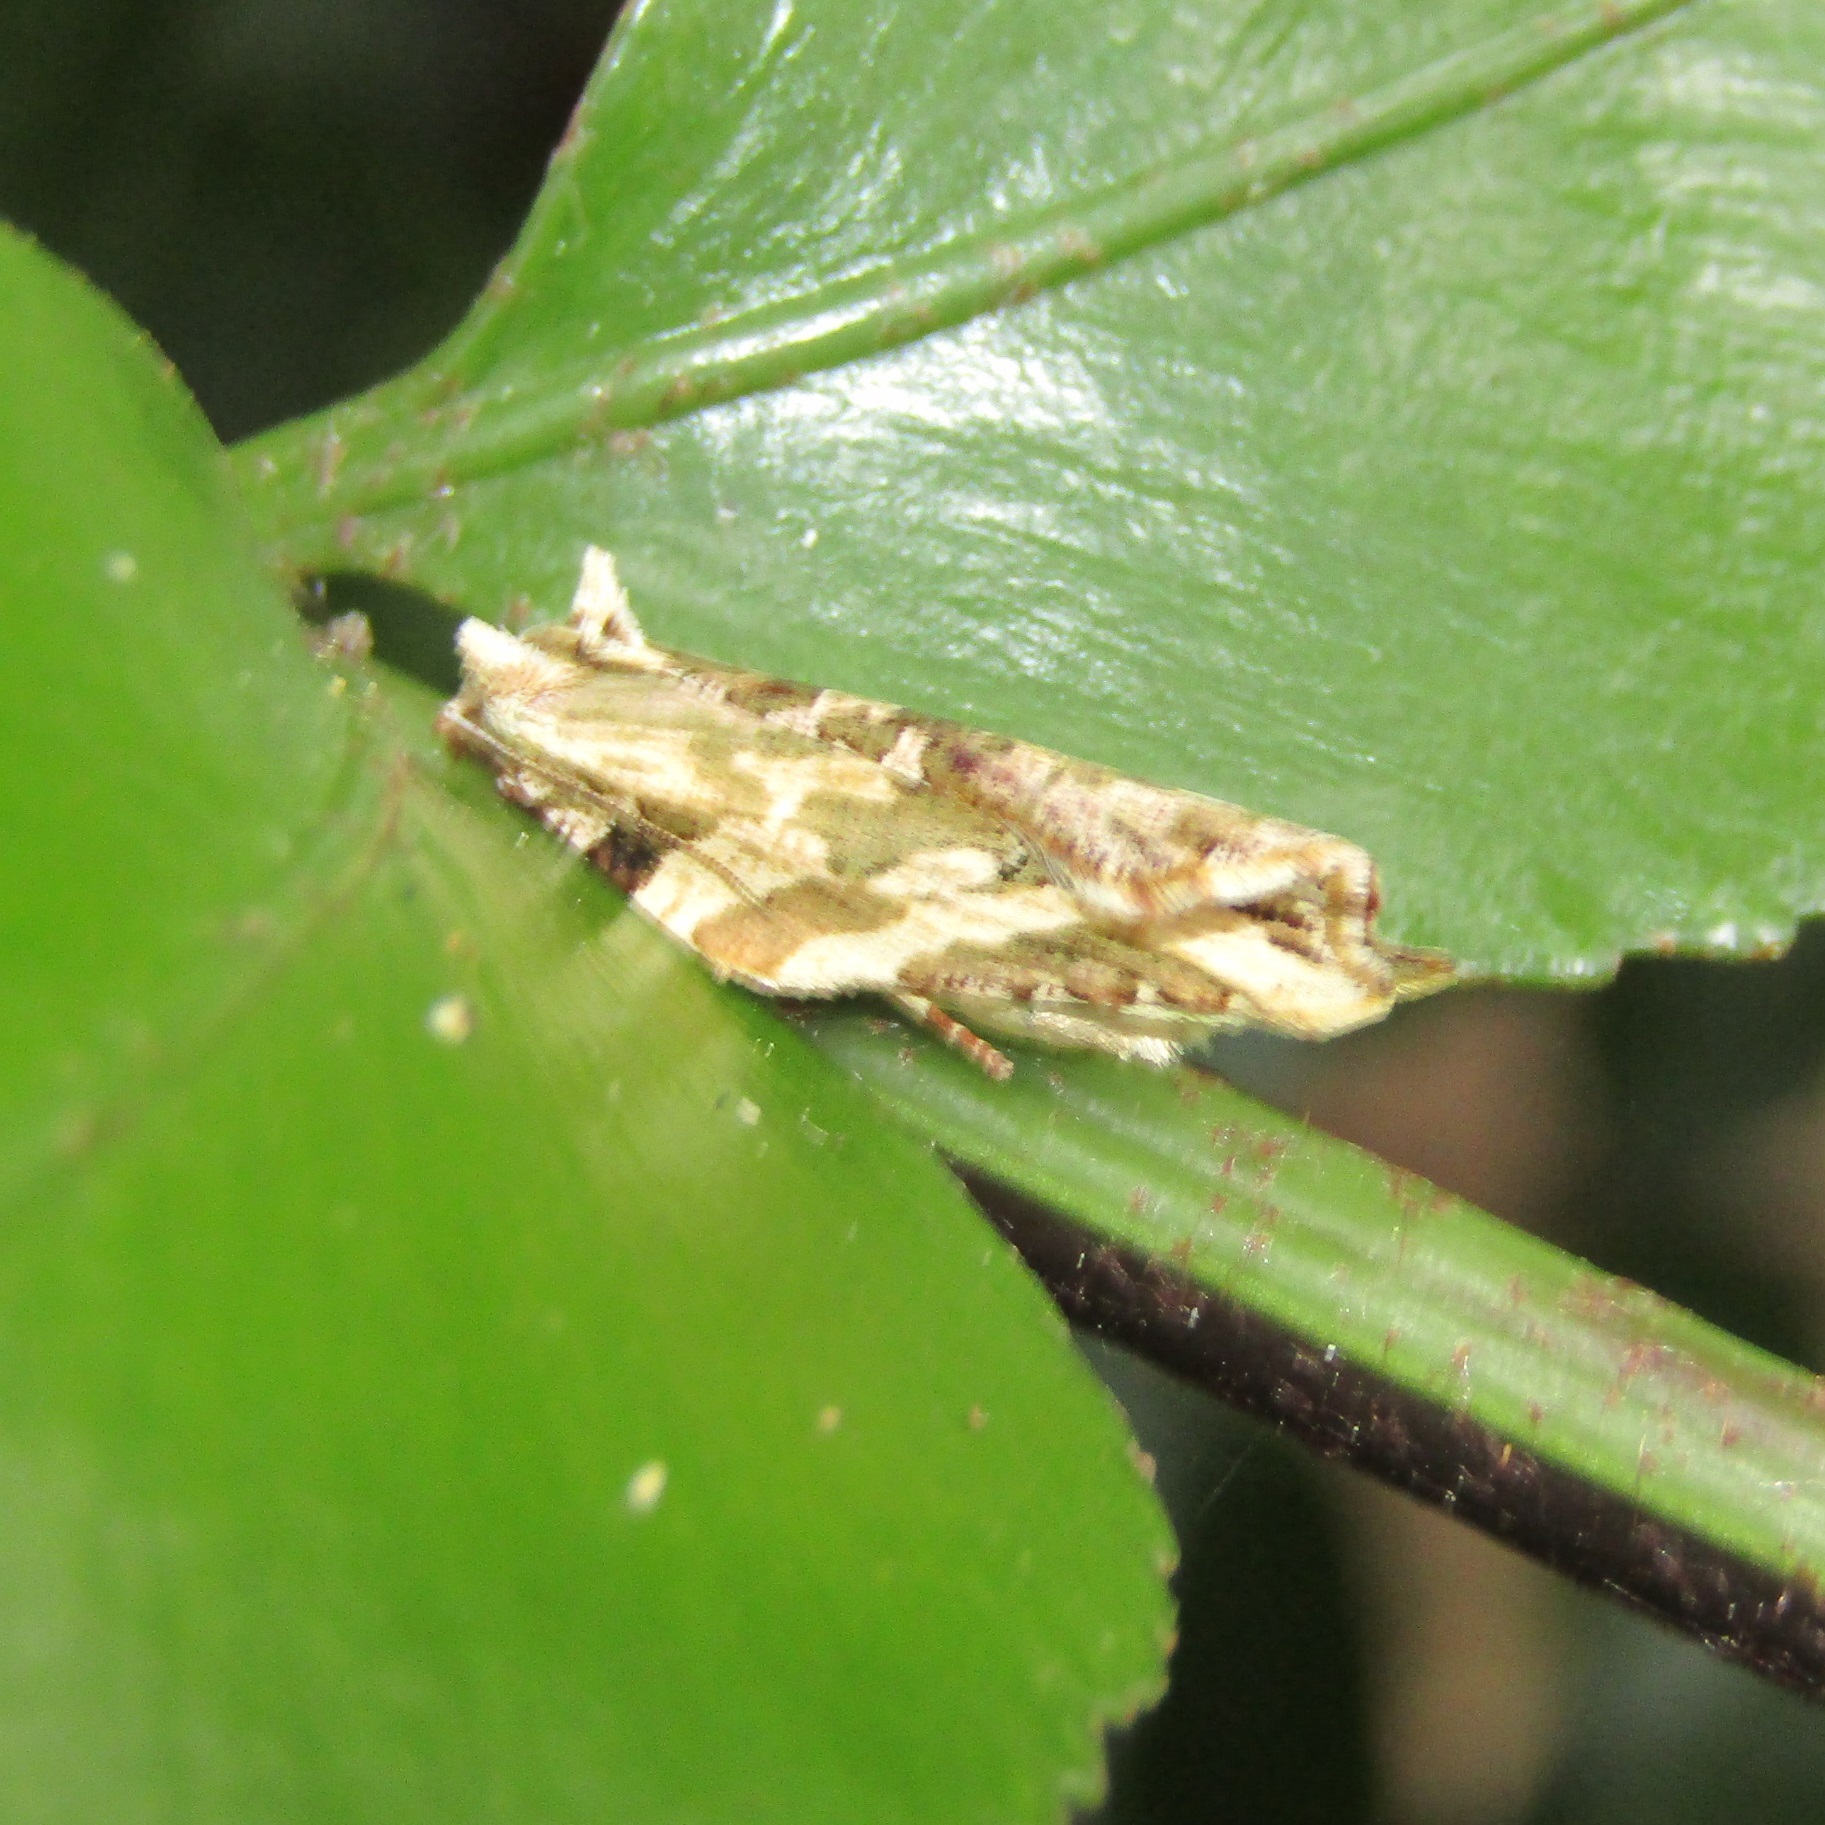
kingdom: Animalia
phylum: Arthropoda
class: Insecta
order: Lepidoptera
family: Tortricidae
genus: Epalxiphora
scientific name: Epalxiphora axenana
